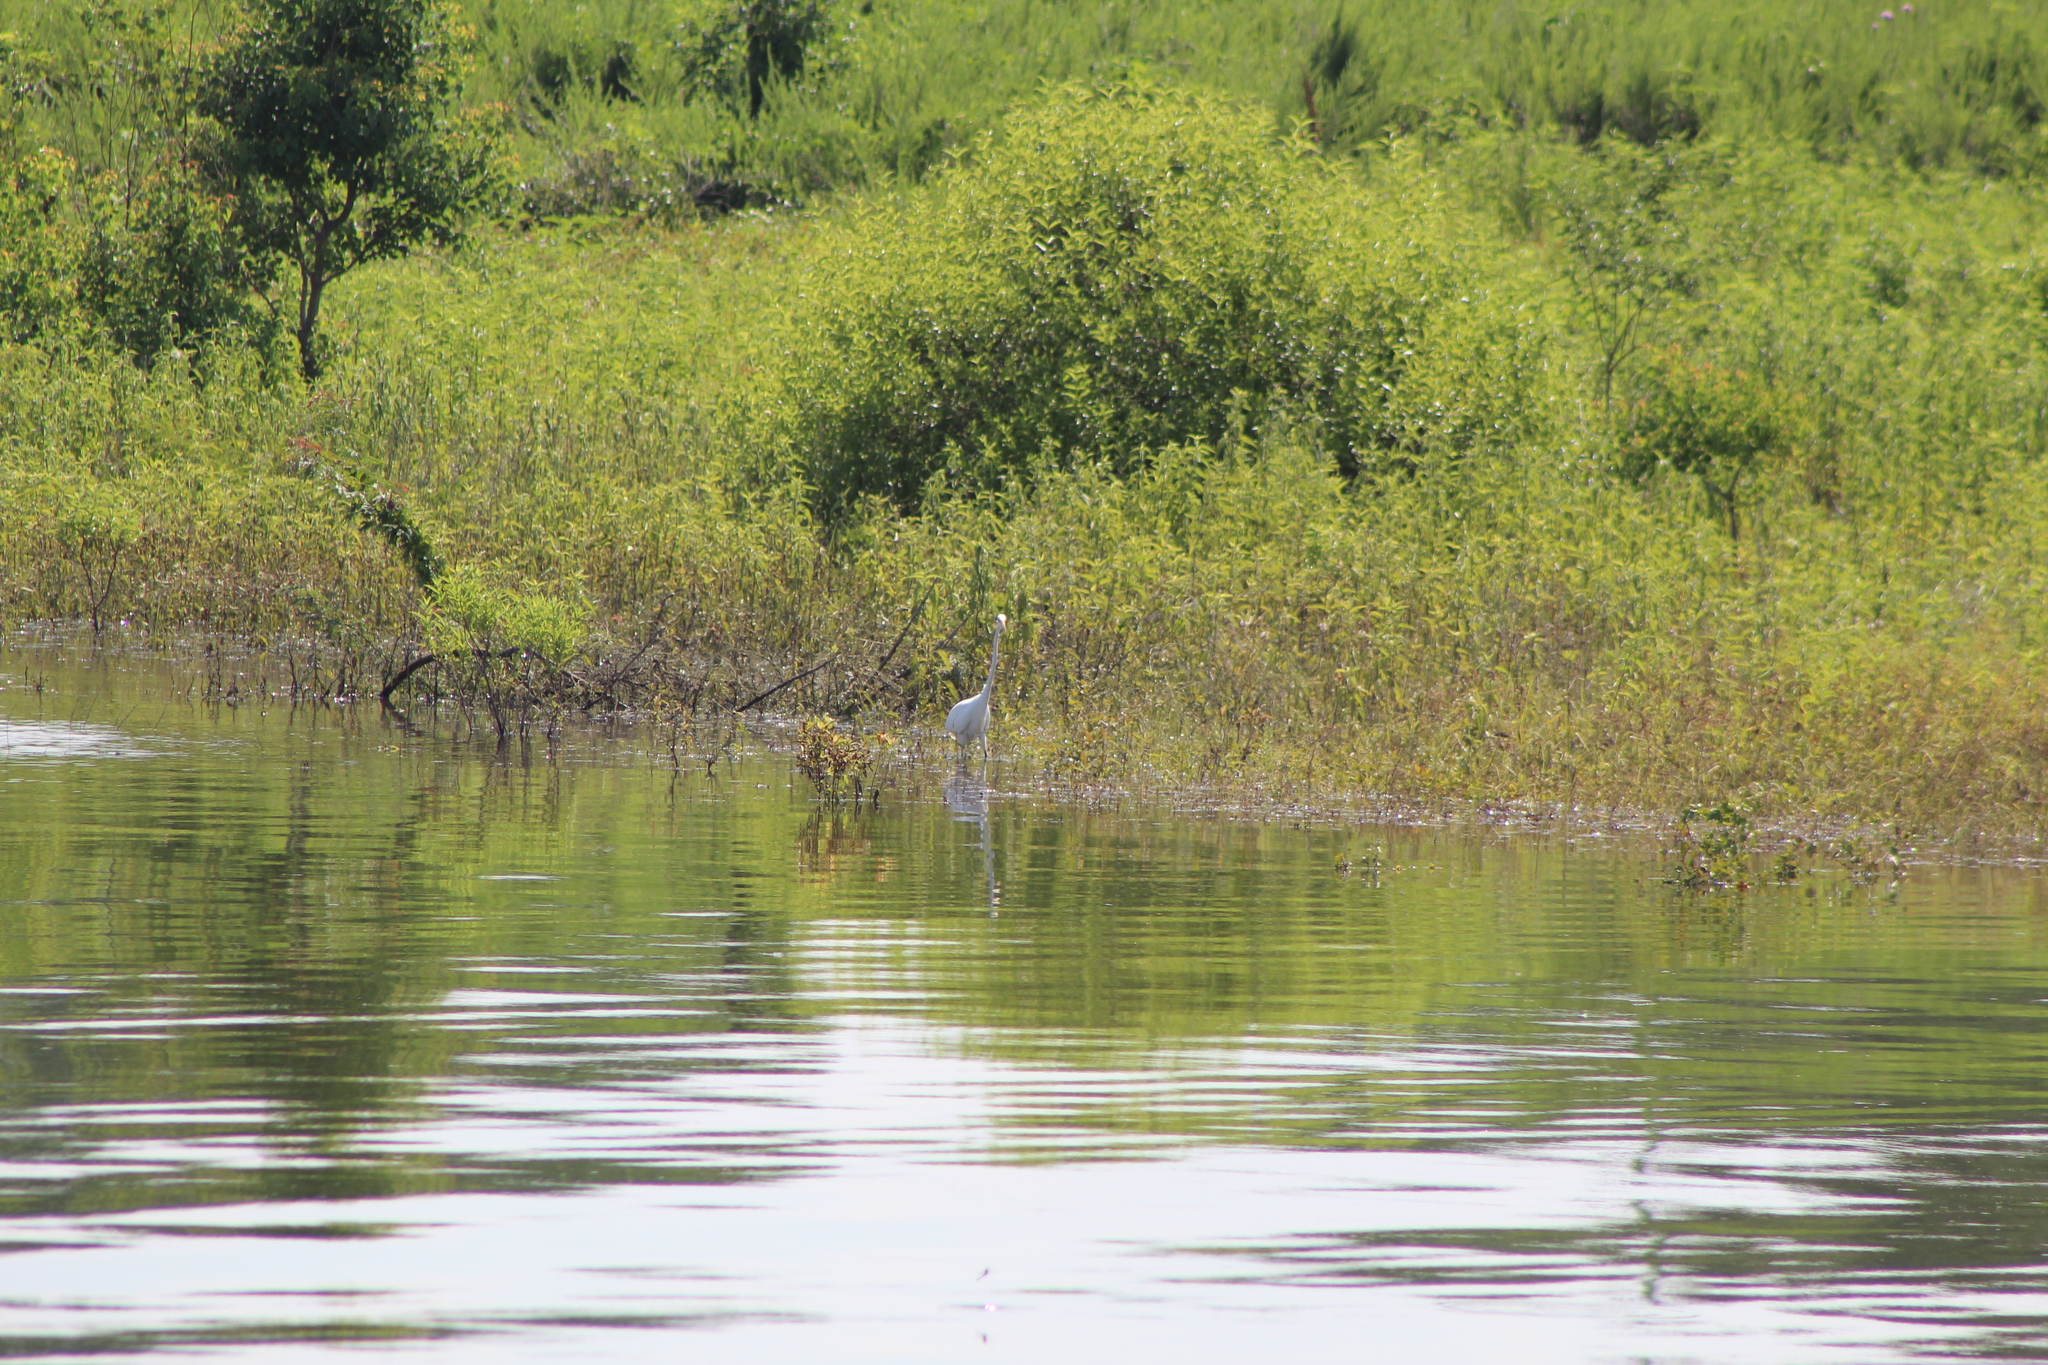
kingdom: Animalia
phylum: Chordata
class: Aves
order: Pelecaniformes
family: Ardeidae
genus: Ardea
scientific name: Ardea alba
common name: Great egret
